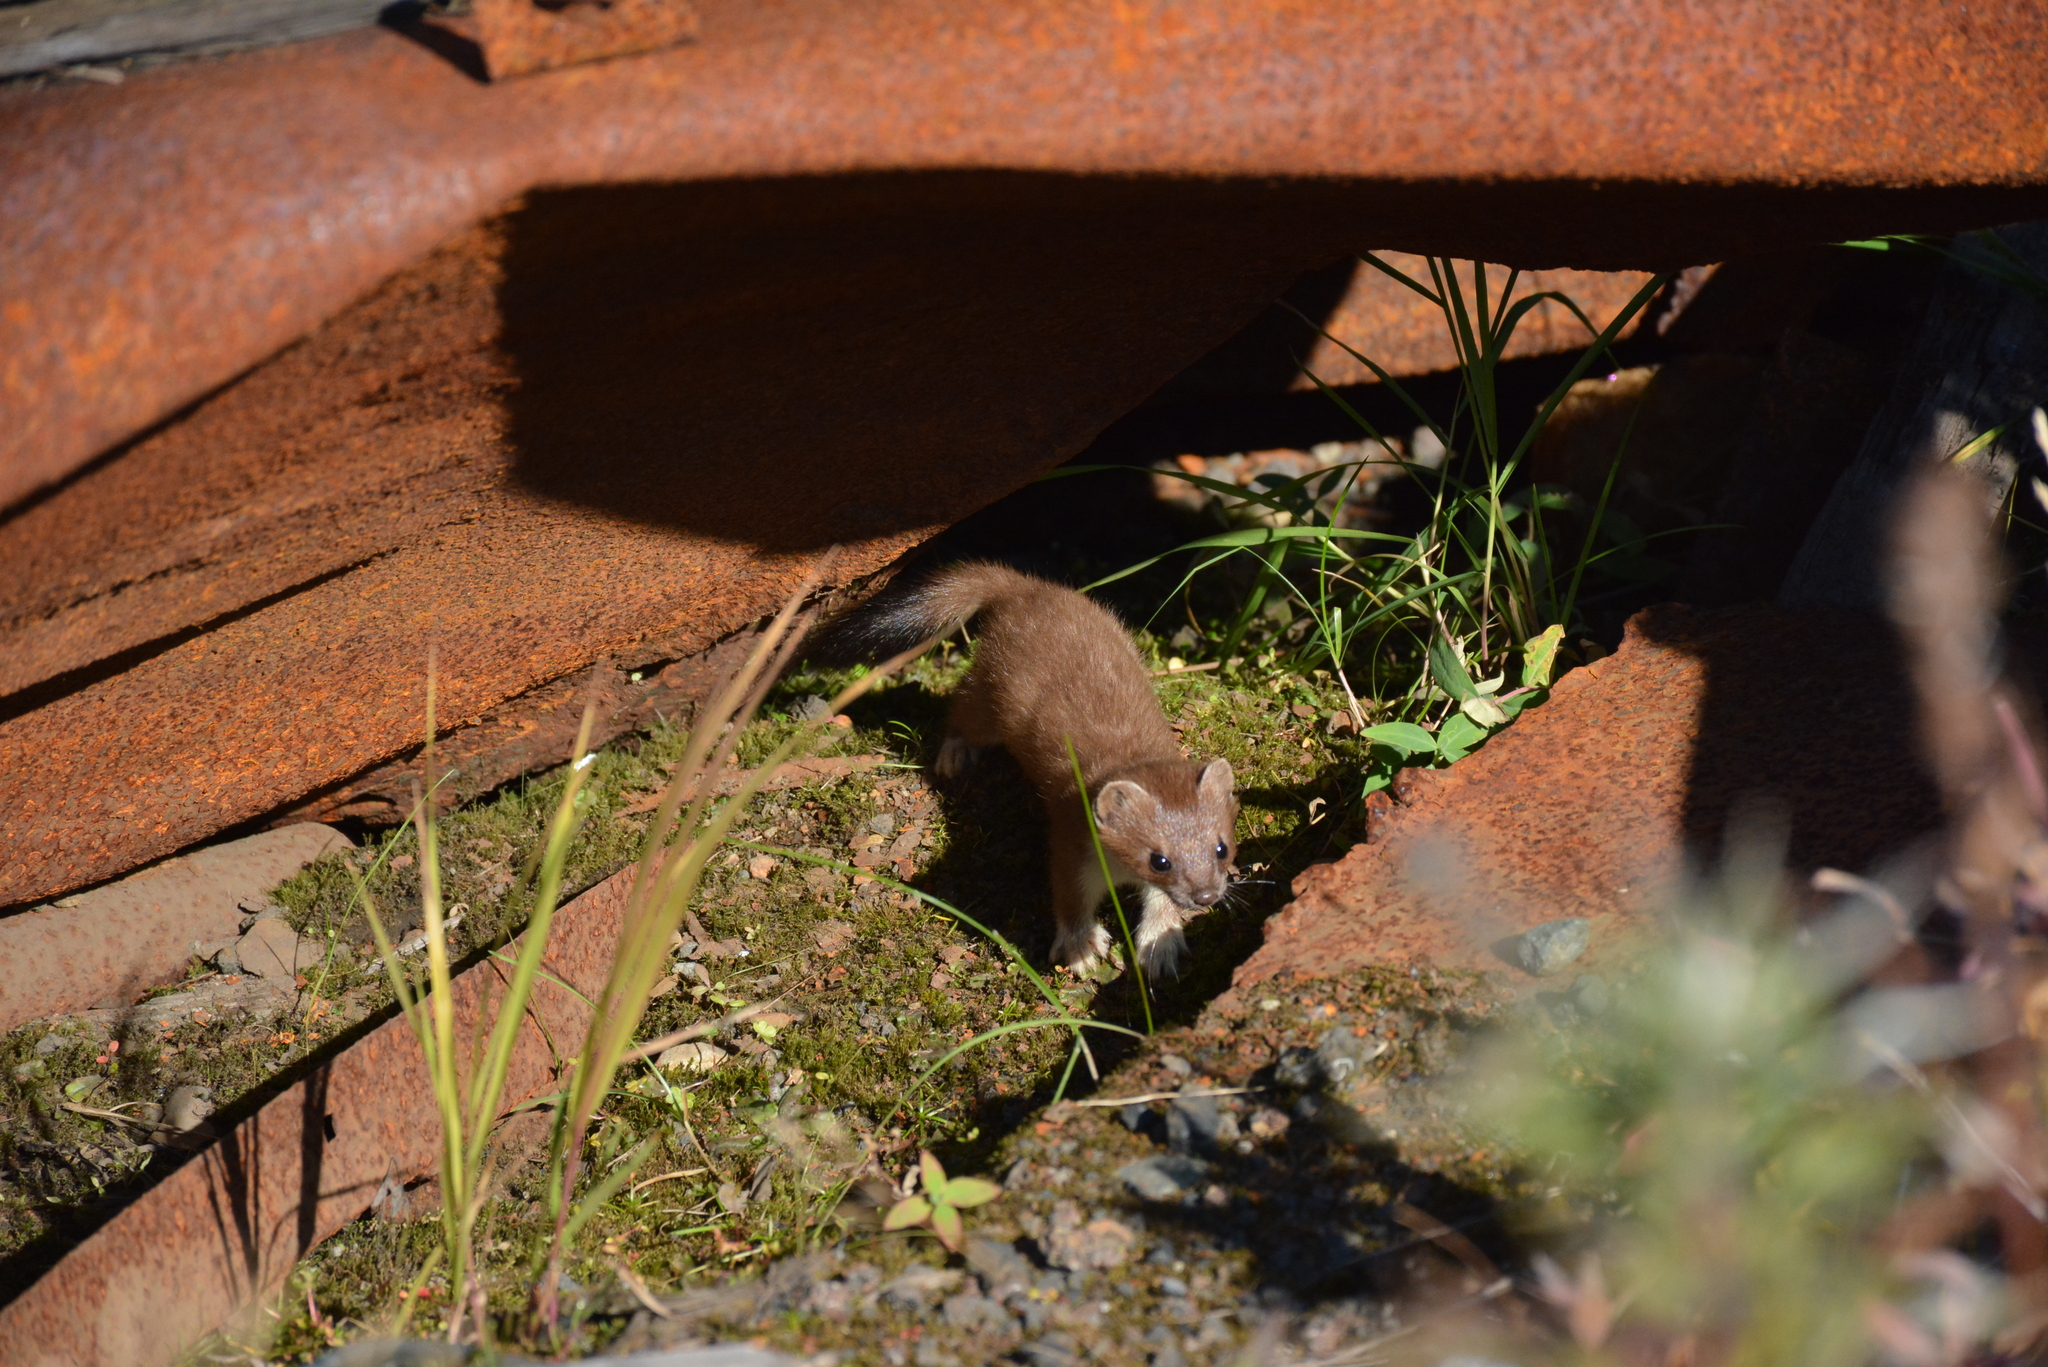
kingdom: Animalia
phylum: Chordata
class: Mammalia
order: Carnivora
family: Mustelidae
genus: Mustela
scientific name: Mustela erminea
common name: Stoat
